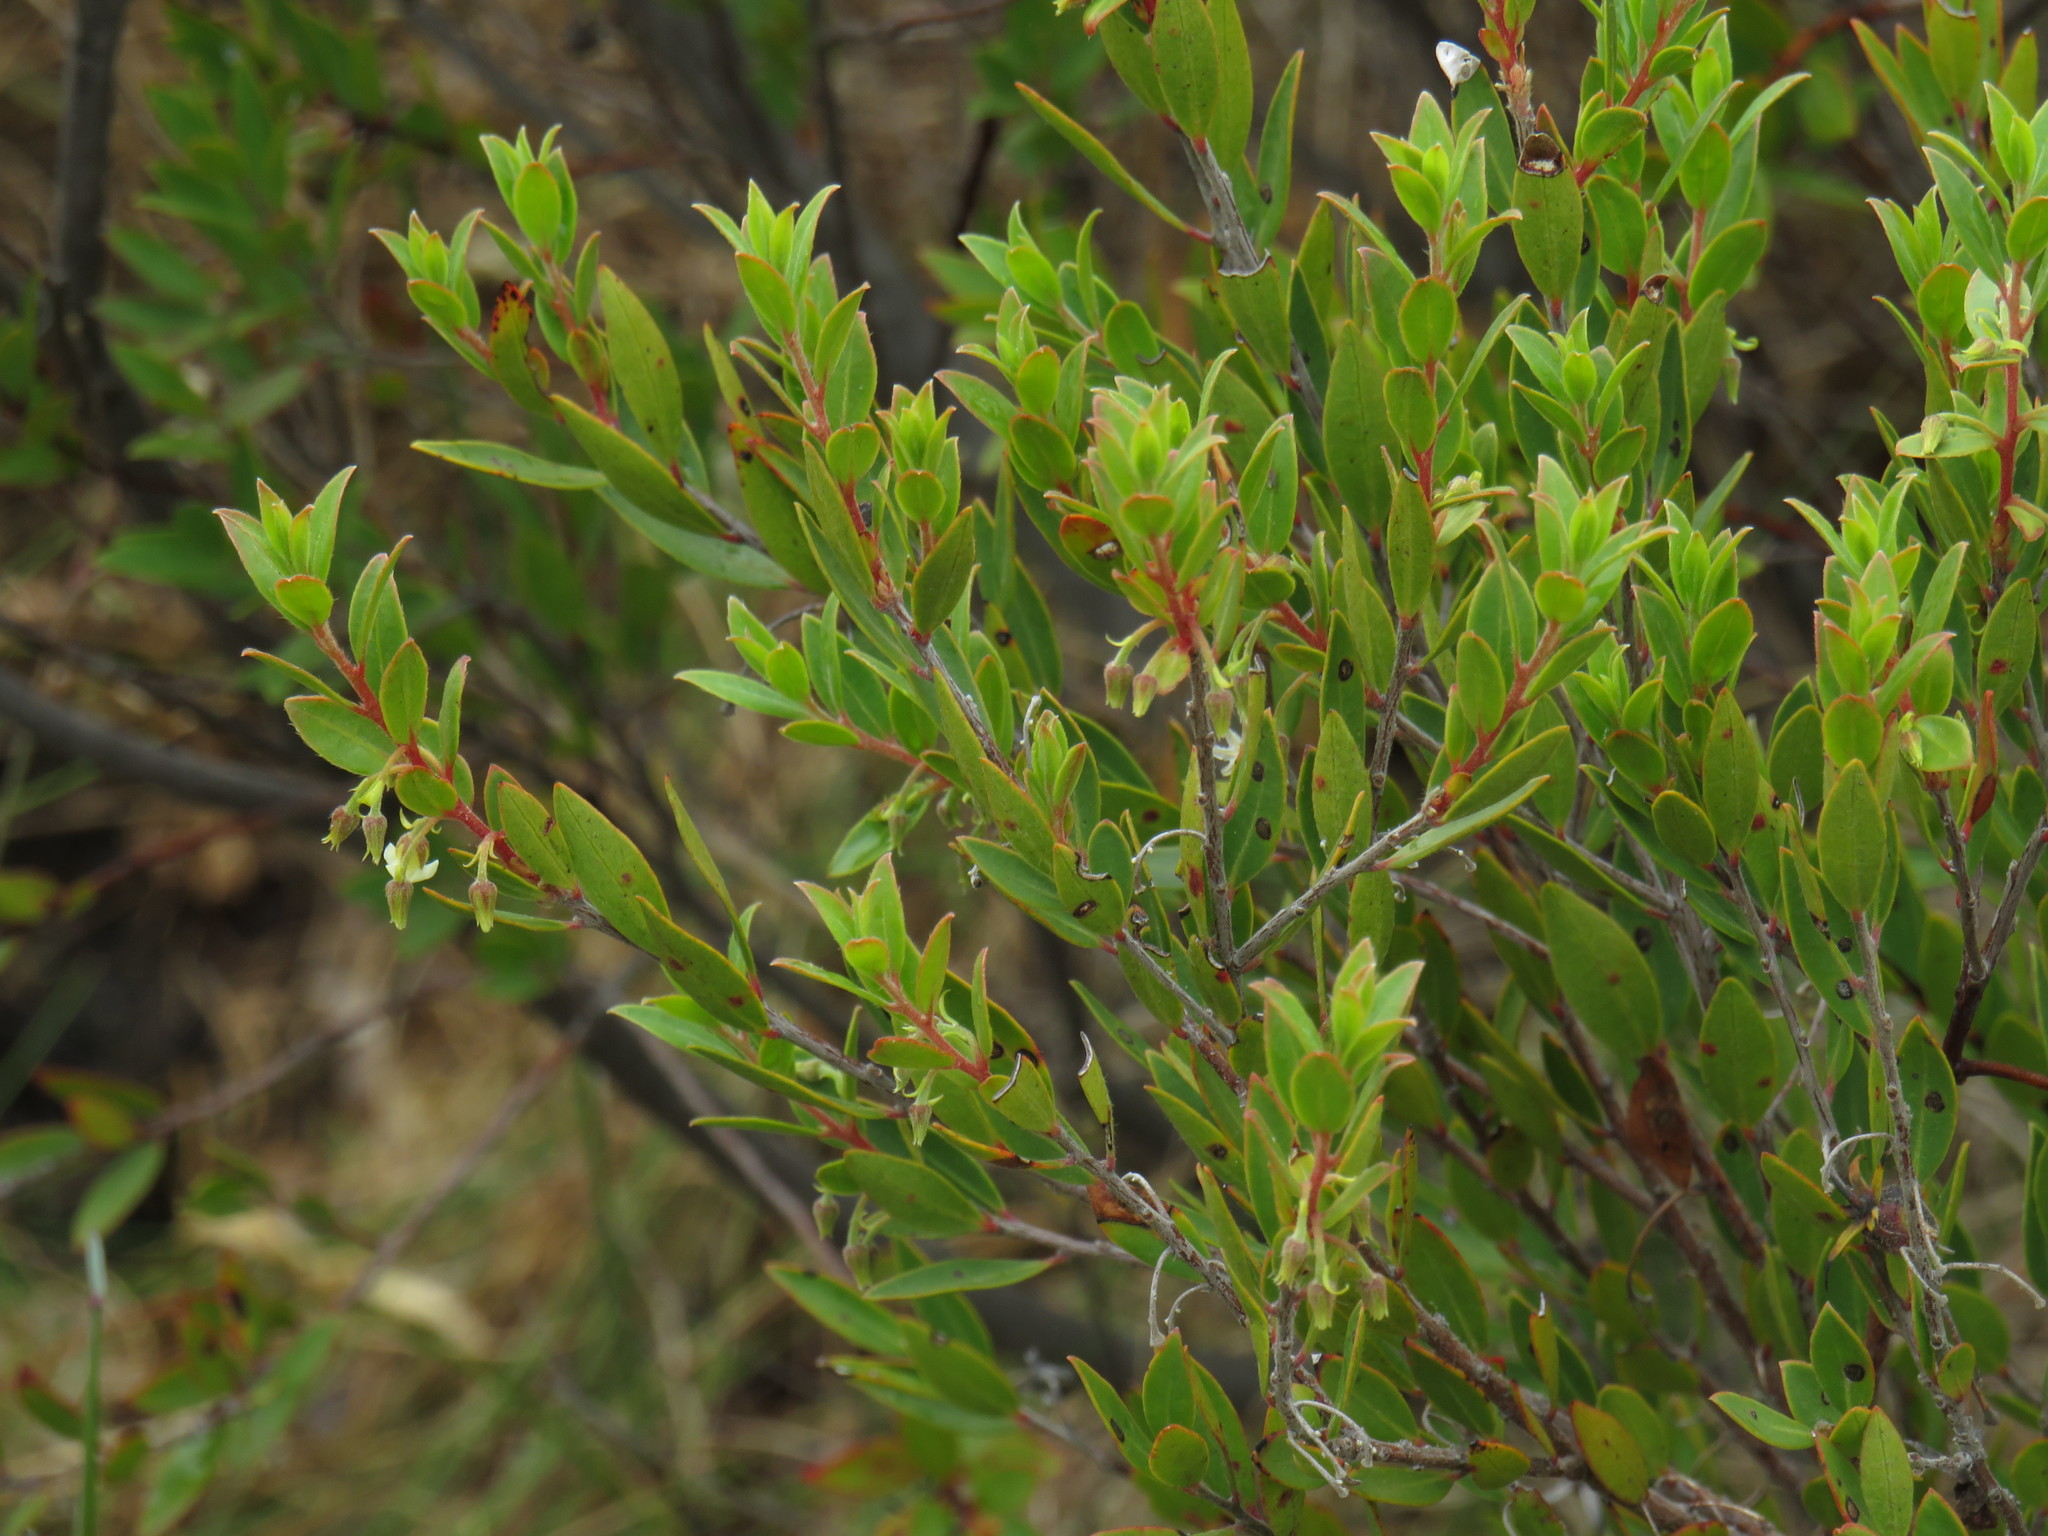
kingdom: Plantae
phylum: Tracheophyta
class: Magnoliopsida
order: Ericales
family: Ebenaceae
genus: Diospyros
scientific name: Diospyros glabra
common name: Fynbos star apple
